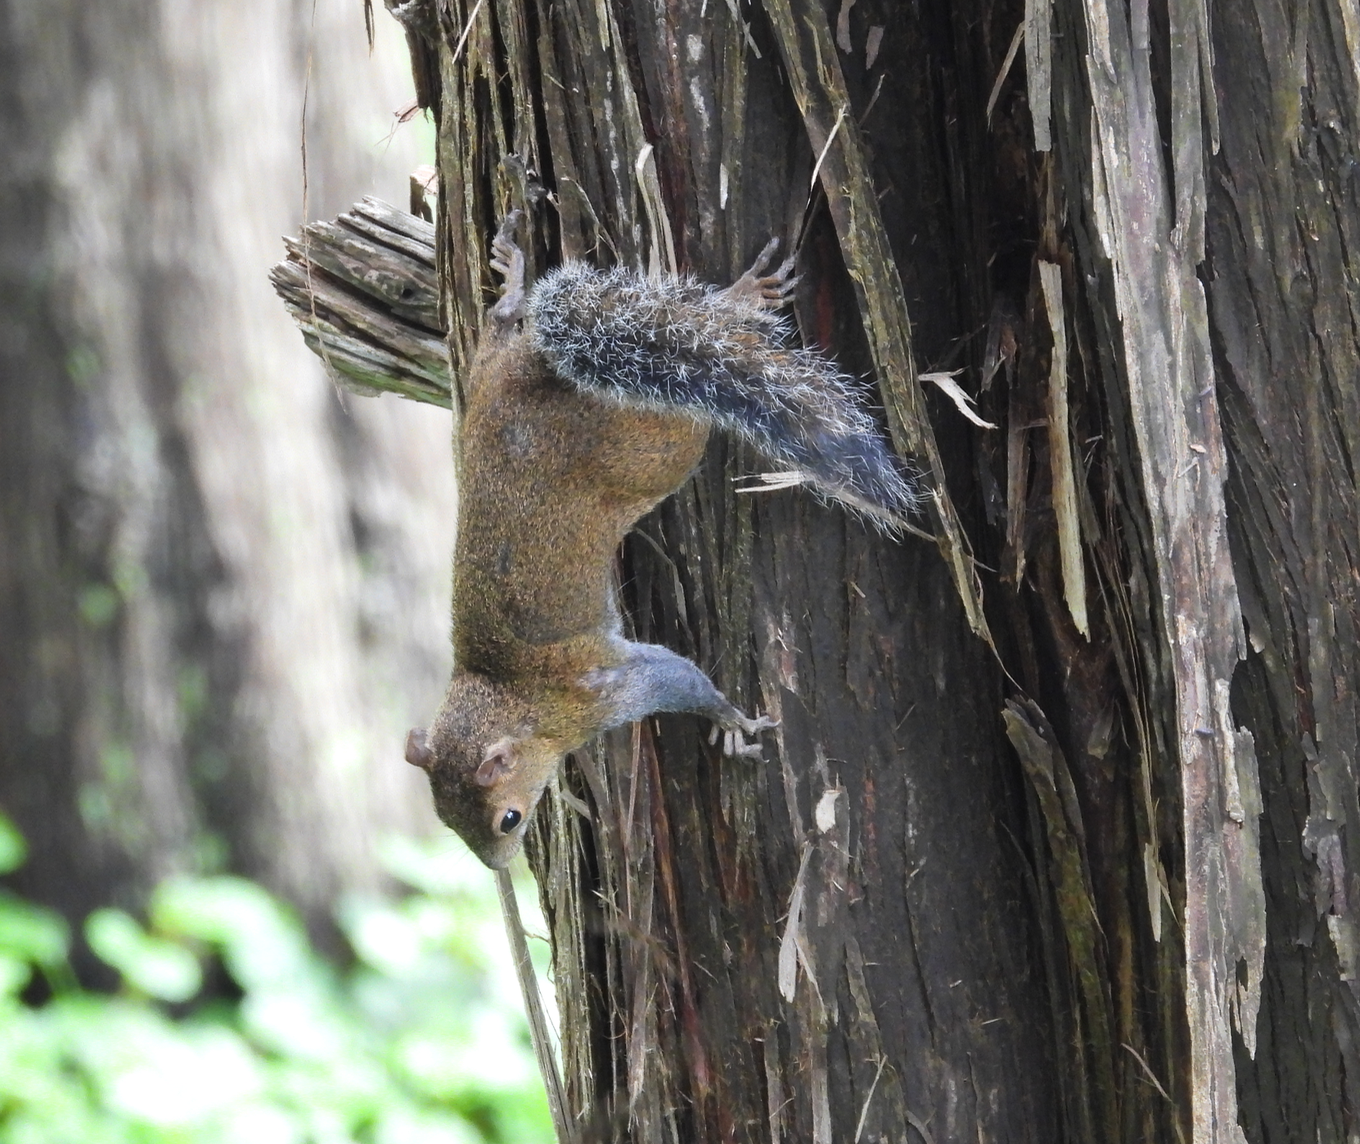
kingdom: Animalia
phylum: Chordata
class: Mammalia
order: Rodentia
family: Sciuridae
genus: Sciurus
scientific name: Sciurus deppei
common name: Deppe's squirrel
